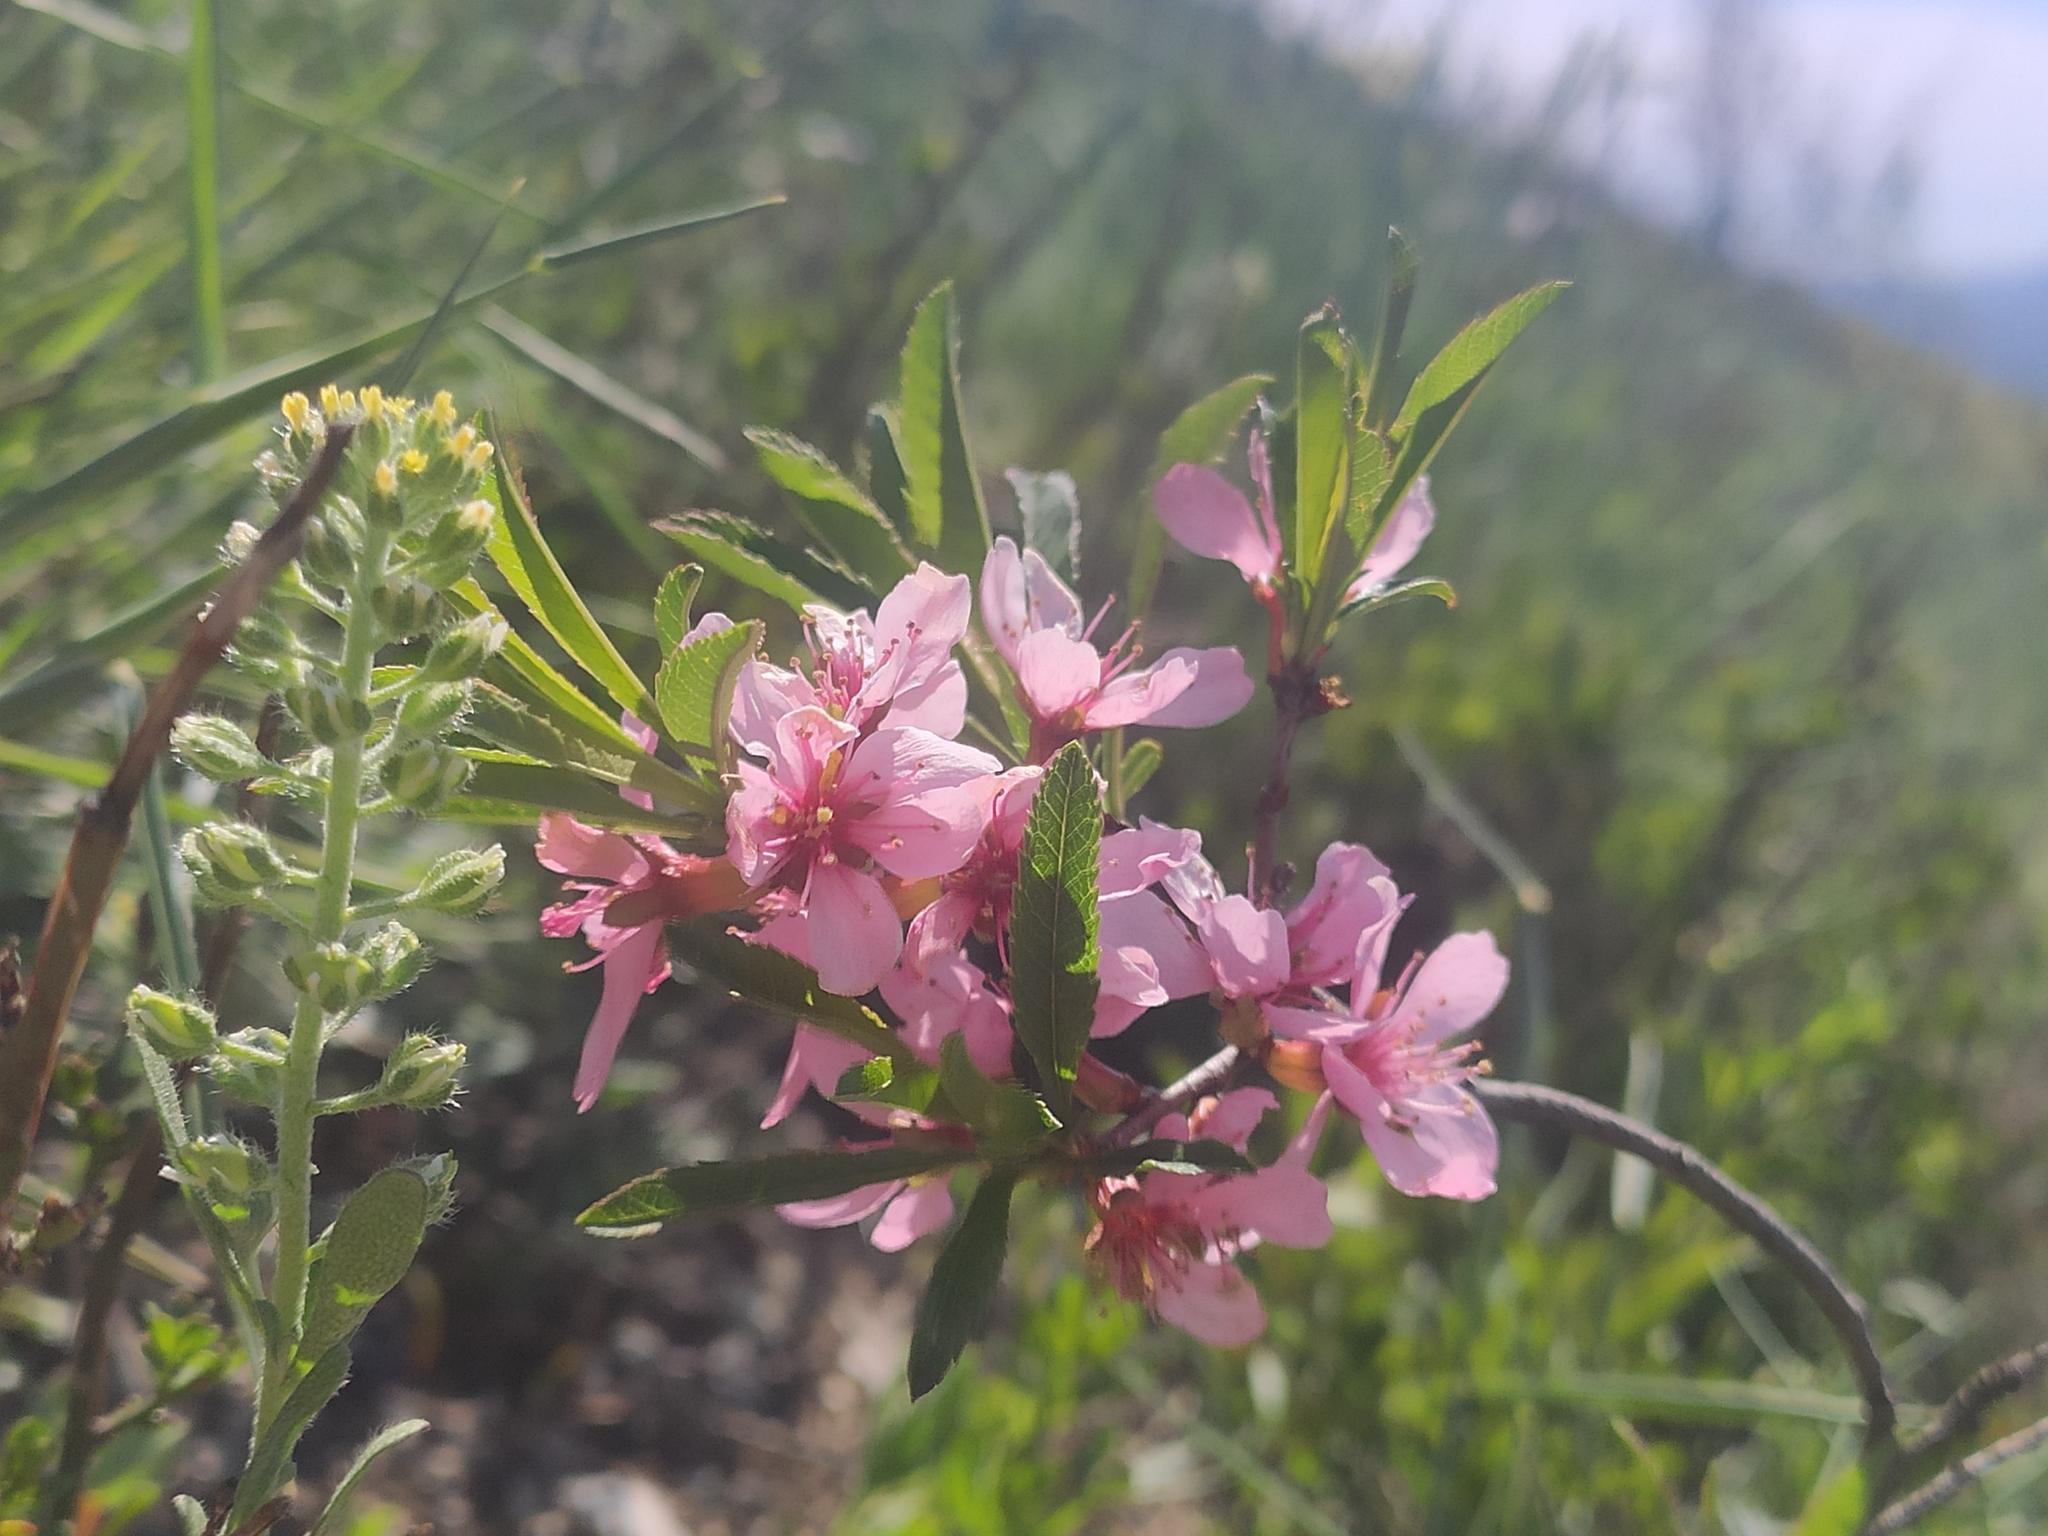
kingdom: Plantae
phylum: Tracheophyta
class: Magnoliopsida
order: Rosales
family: Rosaceae
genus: Prunus
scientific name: Prunus tenella
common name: Dwarf russian almond
